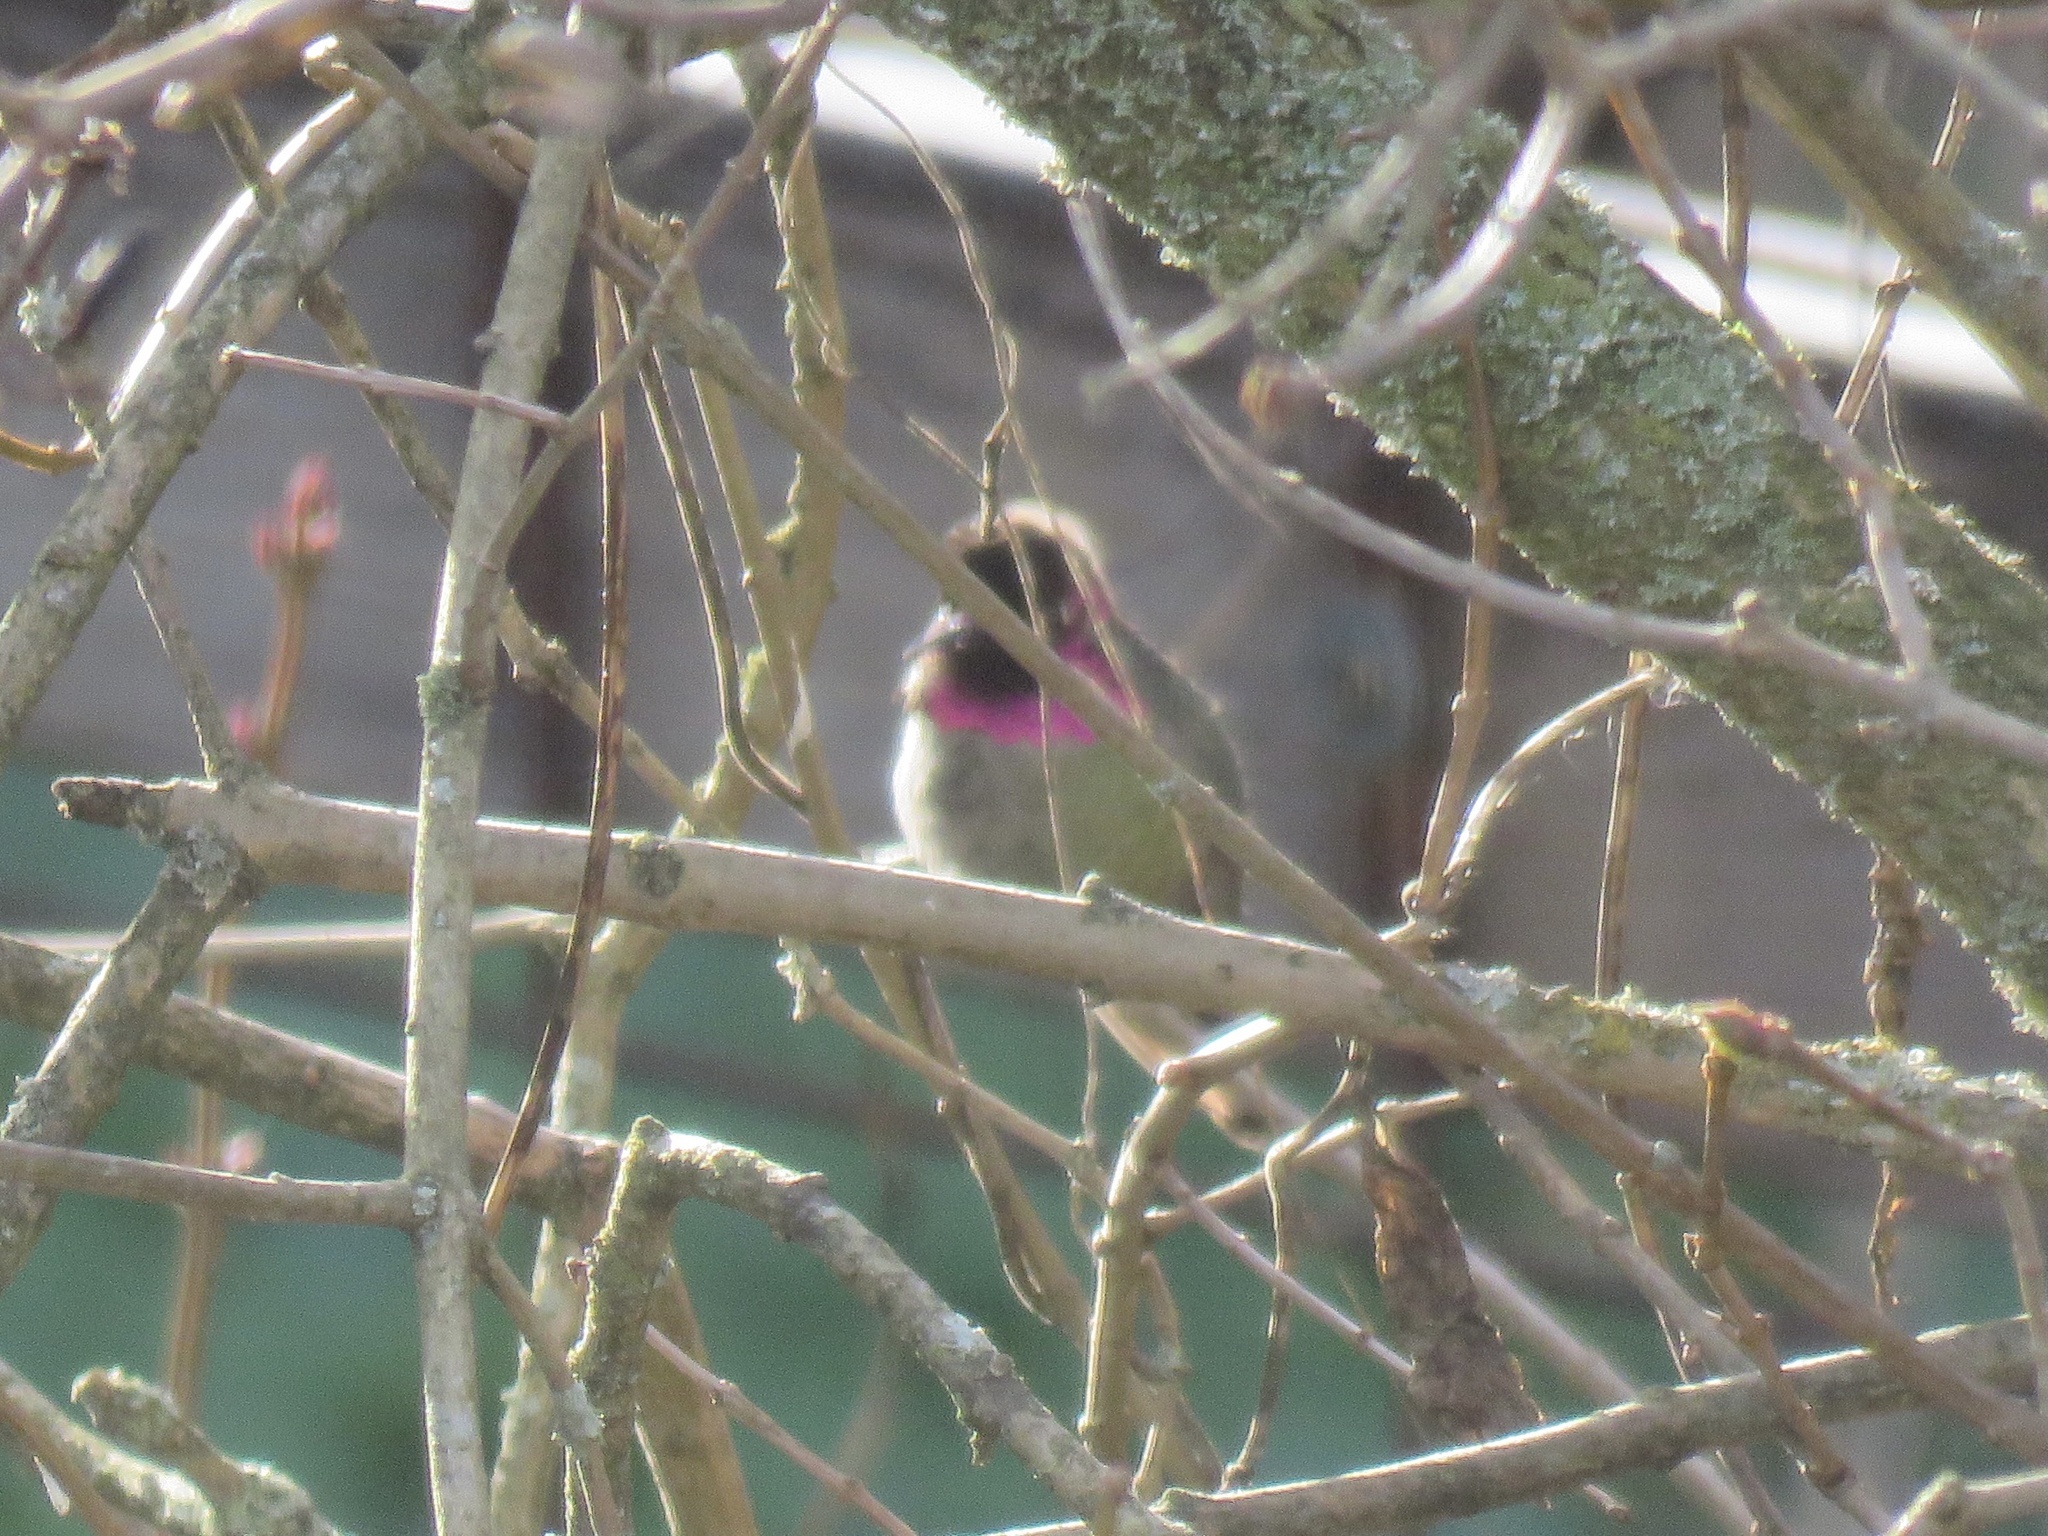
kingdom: Animalia
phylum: Chordata
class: Aves
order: Apodiformes
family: Trochilidae
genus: Calypte
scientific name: Calypte anna
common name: Anna's hummingbird
